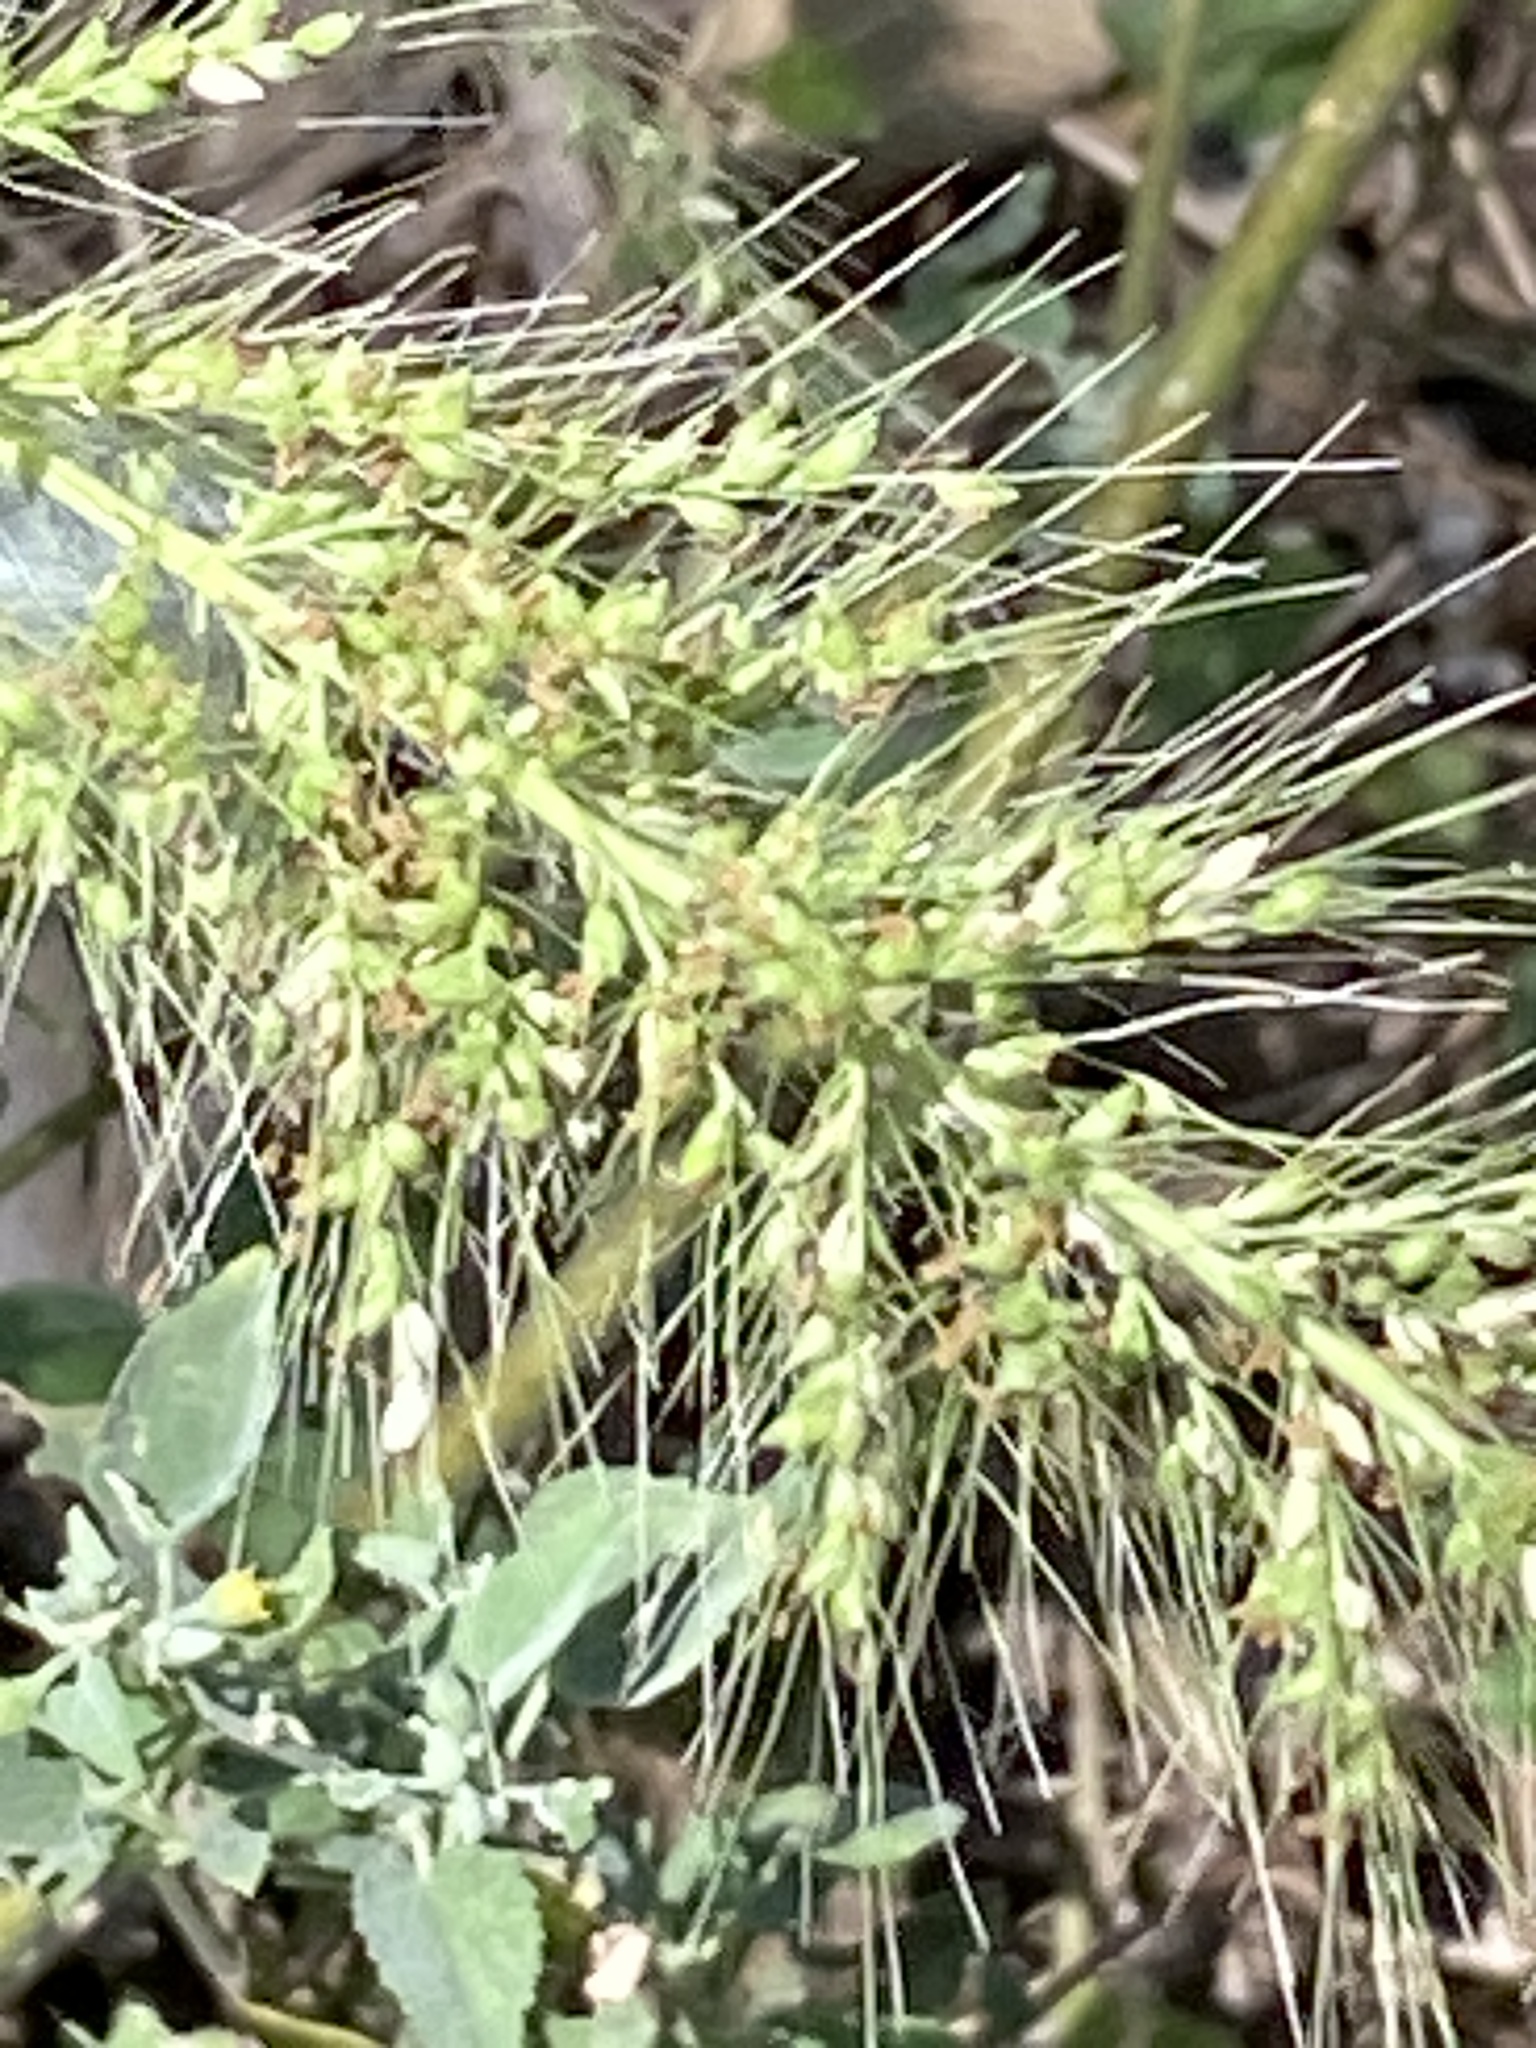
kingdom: Plantae
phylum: Tracheophyta
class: Liliopsida
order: Poales
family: Poaceae
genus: Setaria
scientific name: Setaria scheelei
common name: Southwestern bristle grass
